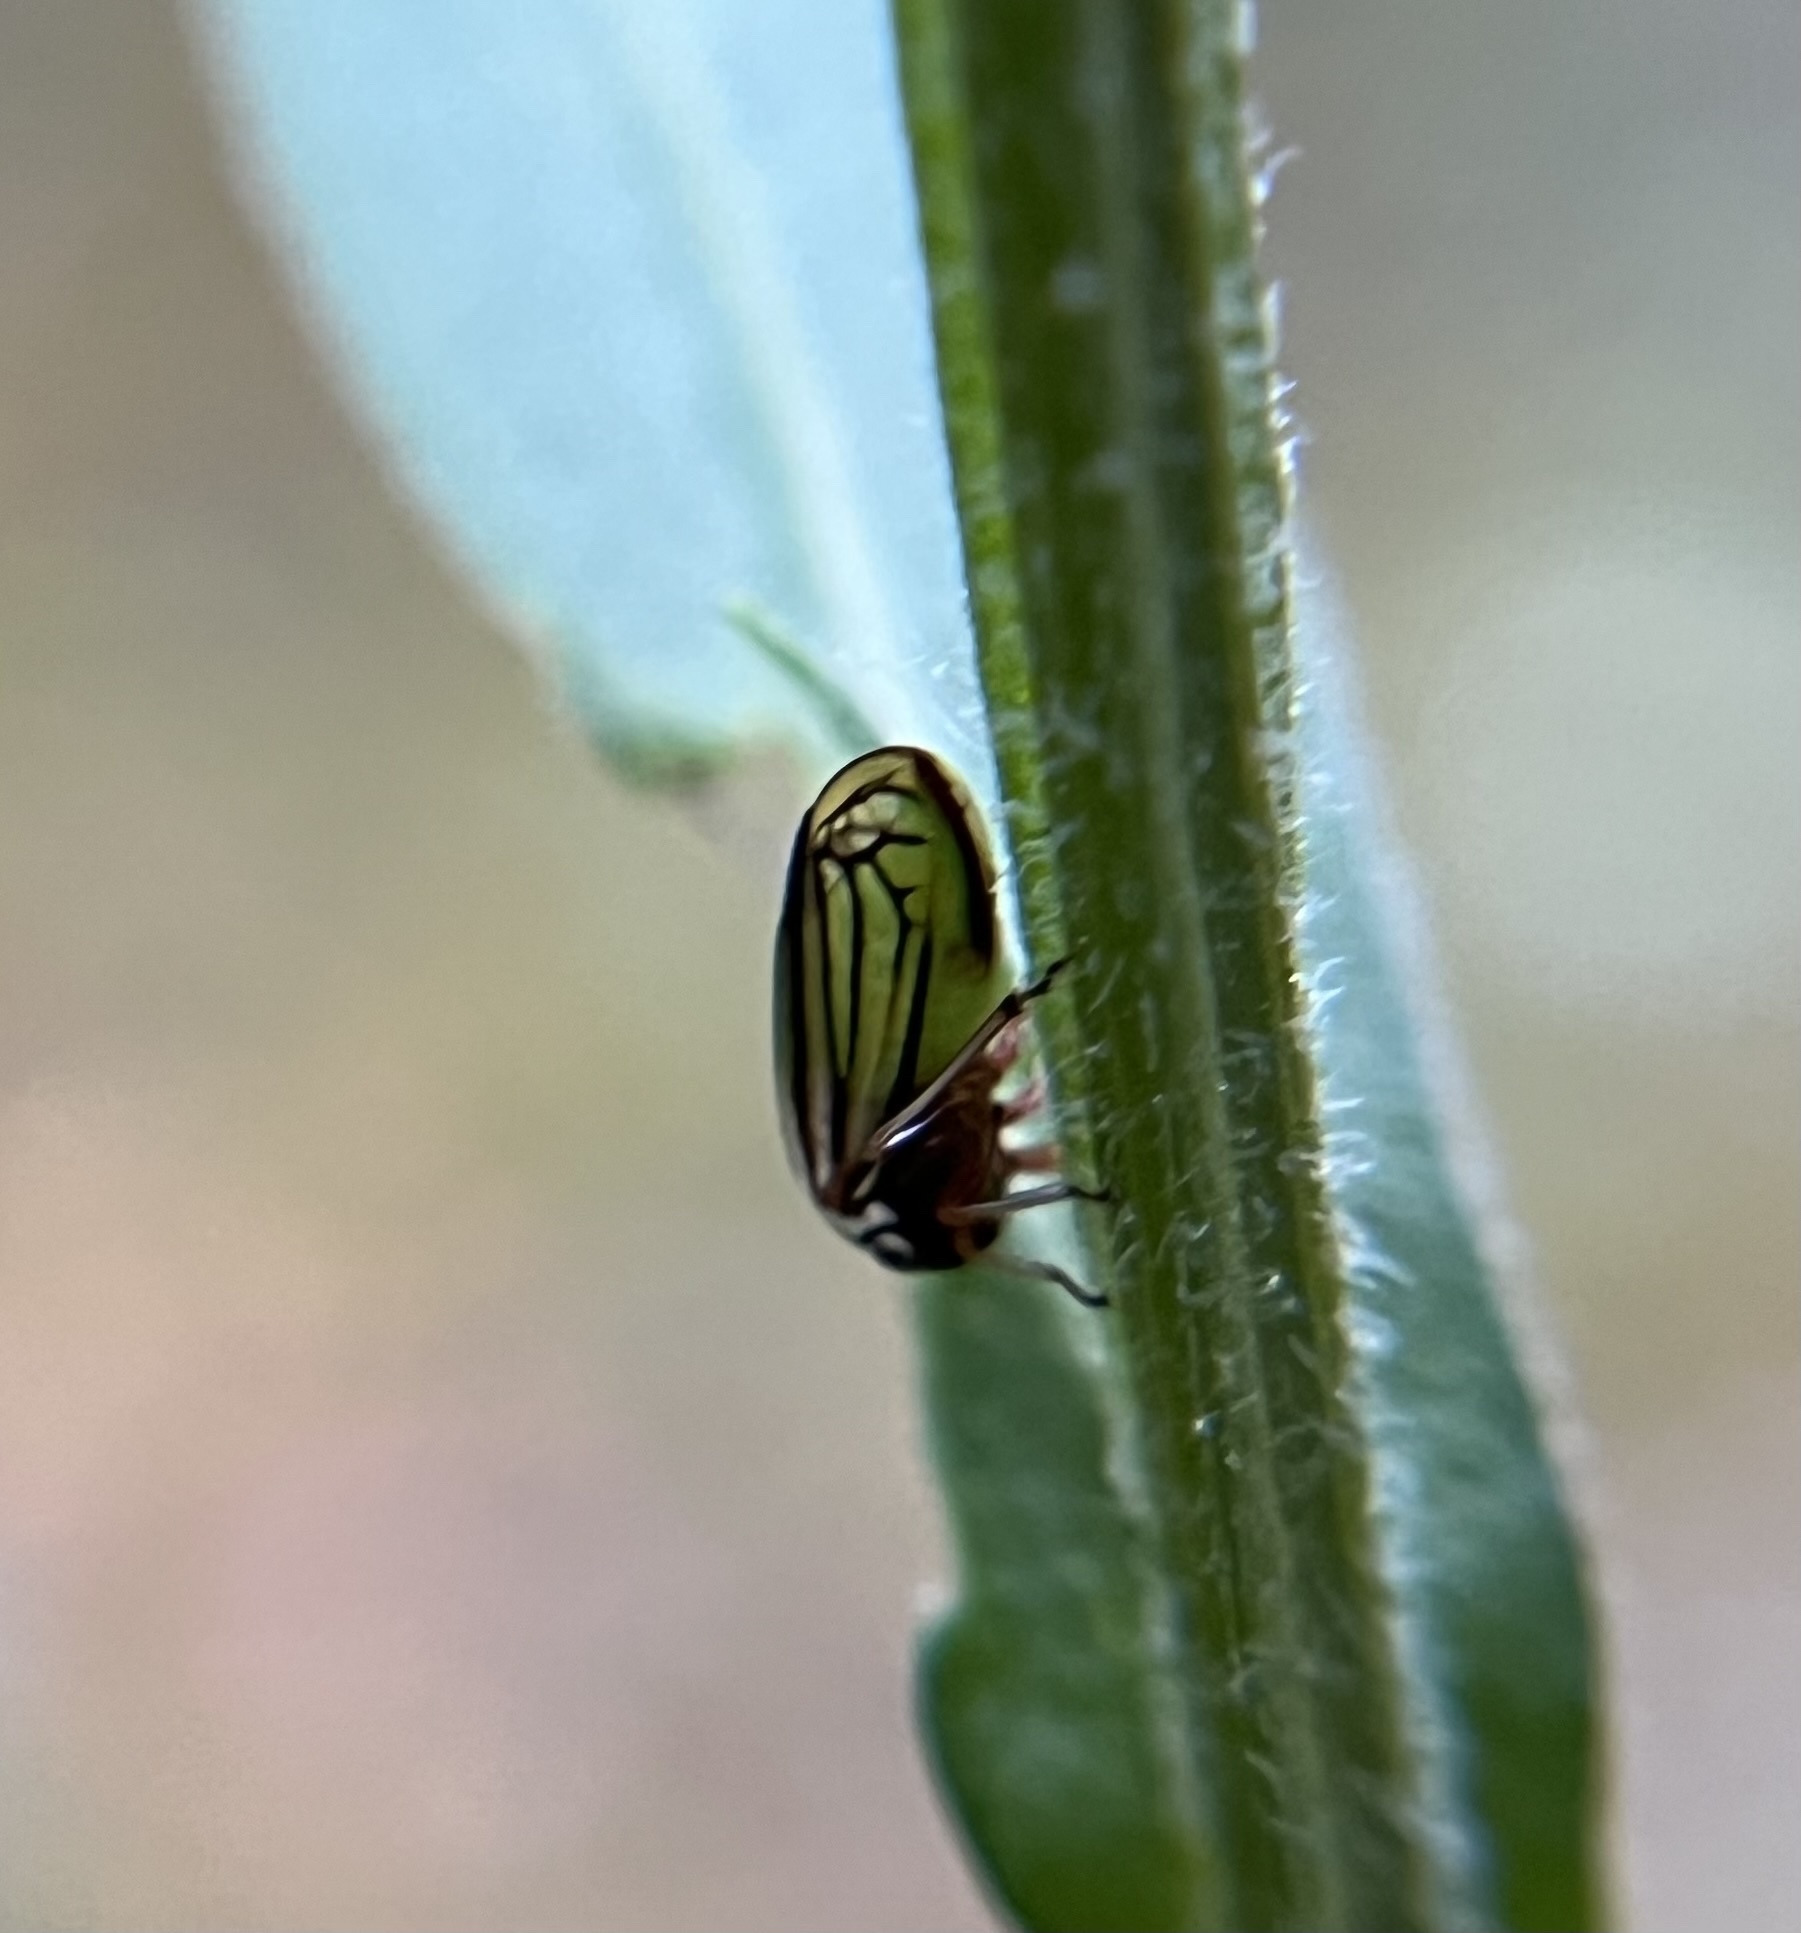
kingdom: Animalia
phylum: Arthropoda
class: Insecta
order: Hemiptera
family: Membracidae
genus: Acutalis
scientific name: Acutalis tartarea
